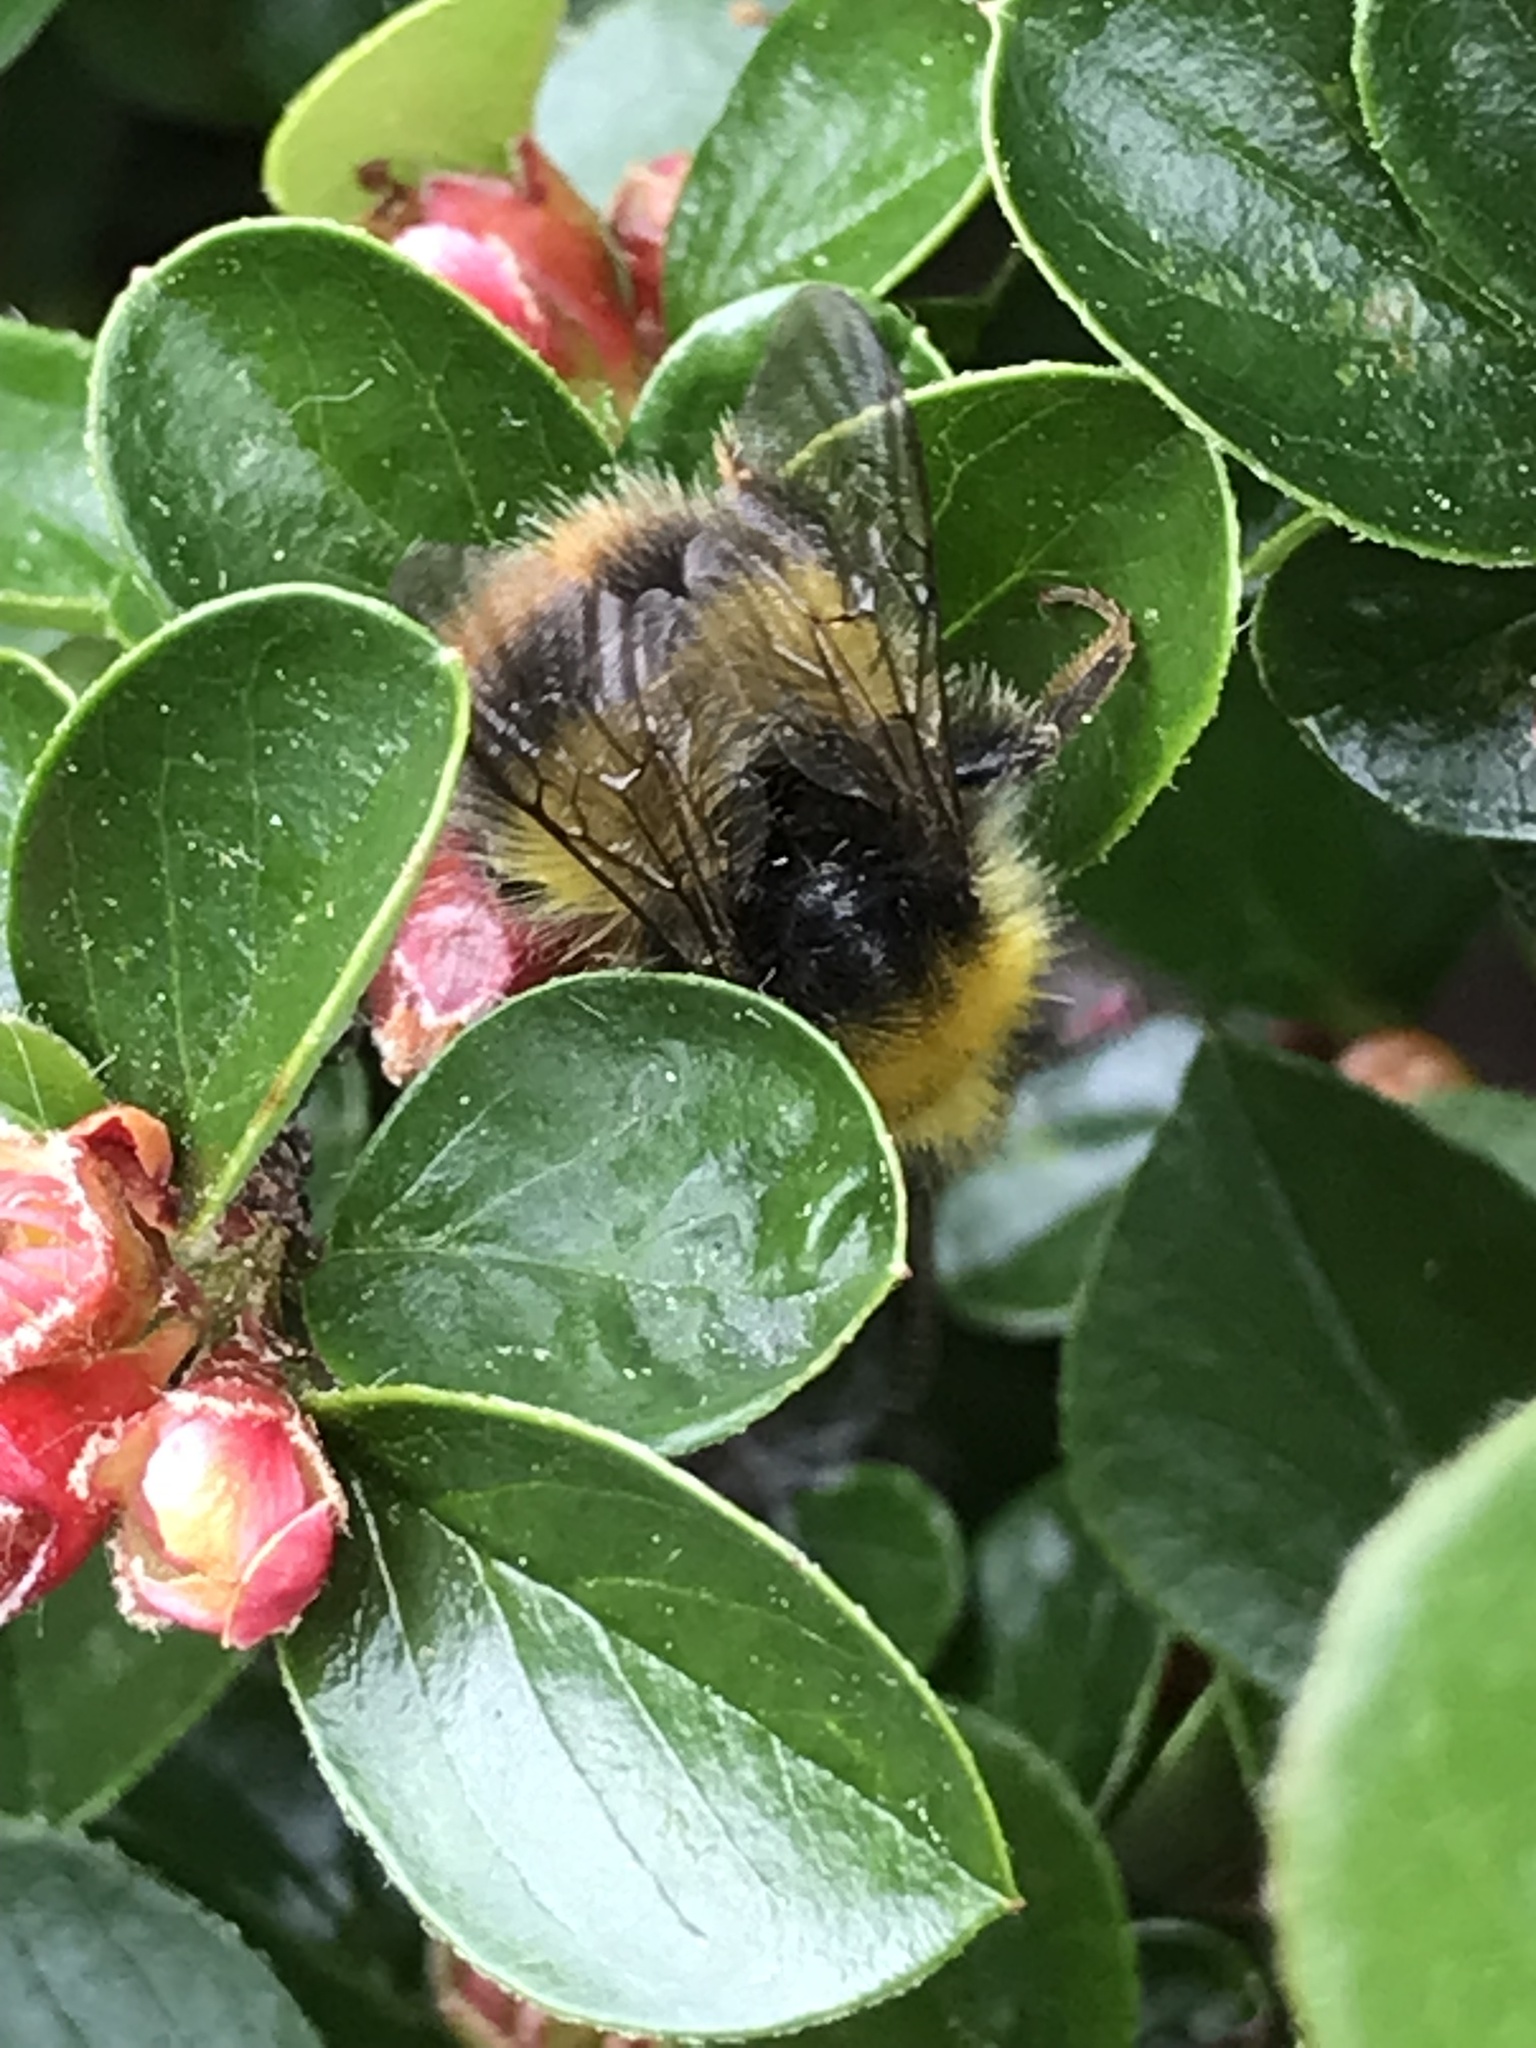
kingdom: Animalia
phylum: Arthropoda
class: Insecta
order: Hymenoptera
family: Apidae
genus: Bombus
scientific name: Bombus pratorum
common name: Early humble-bee
